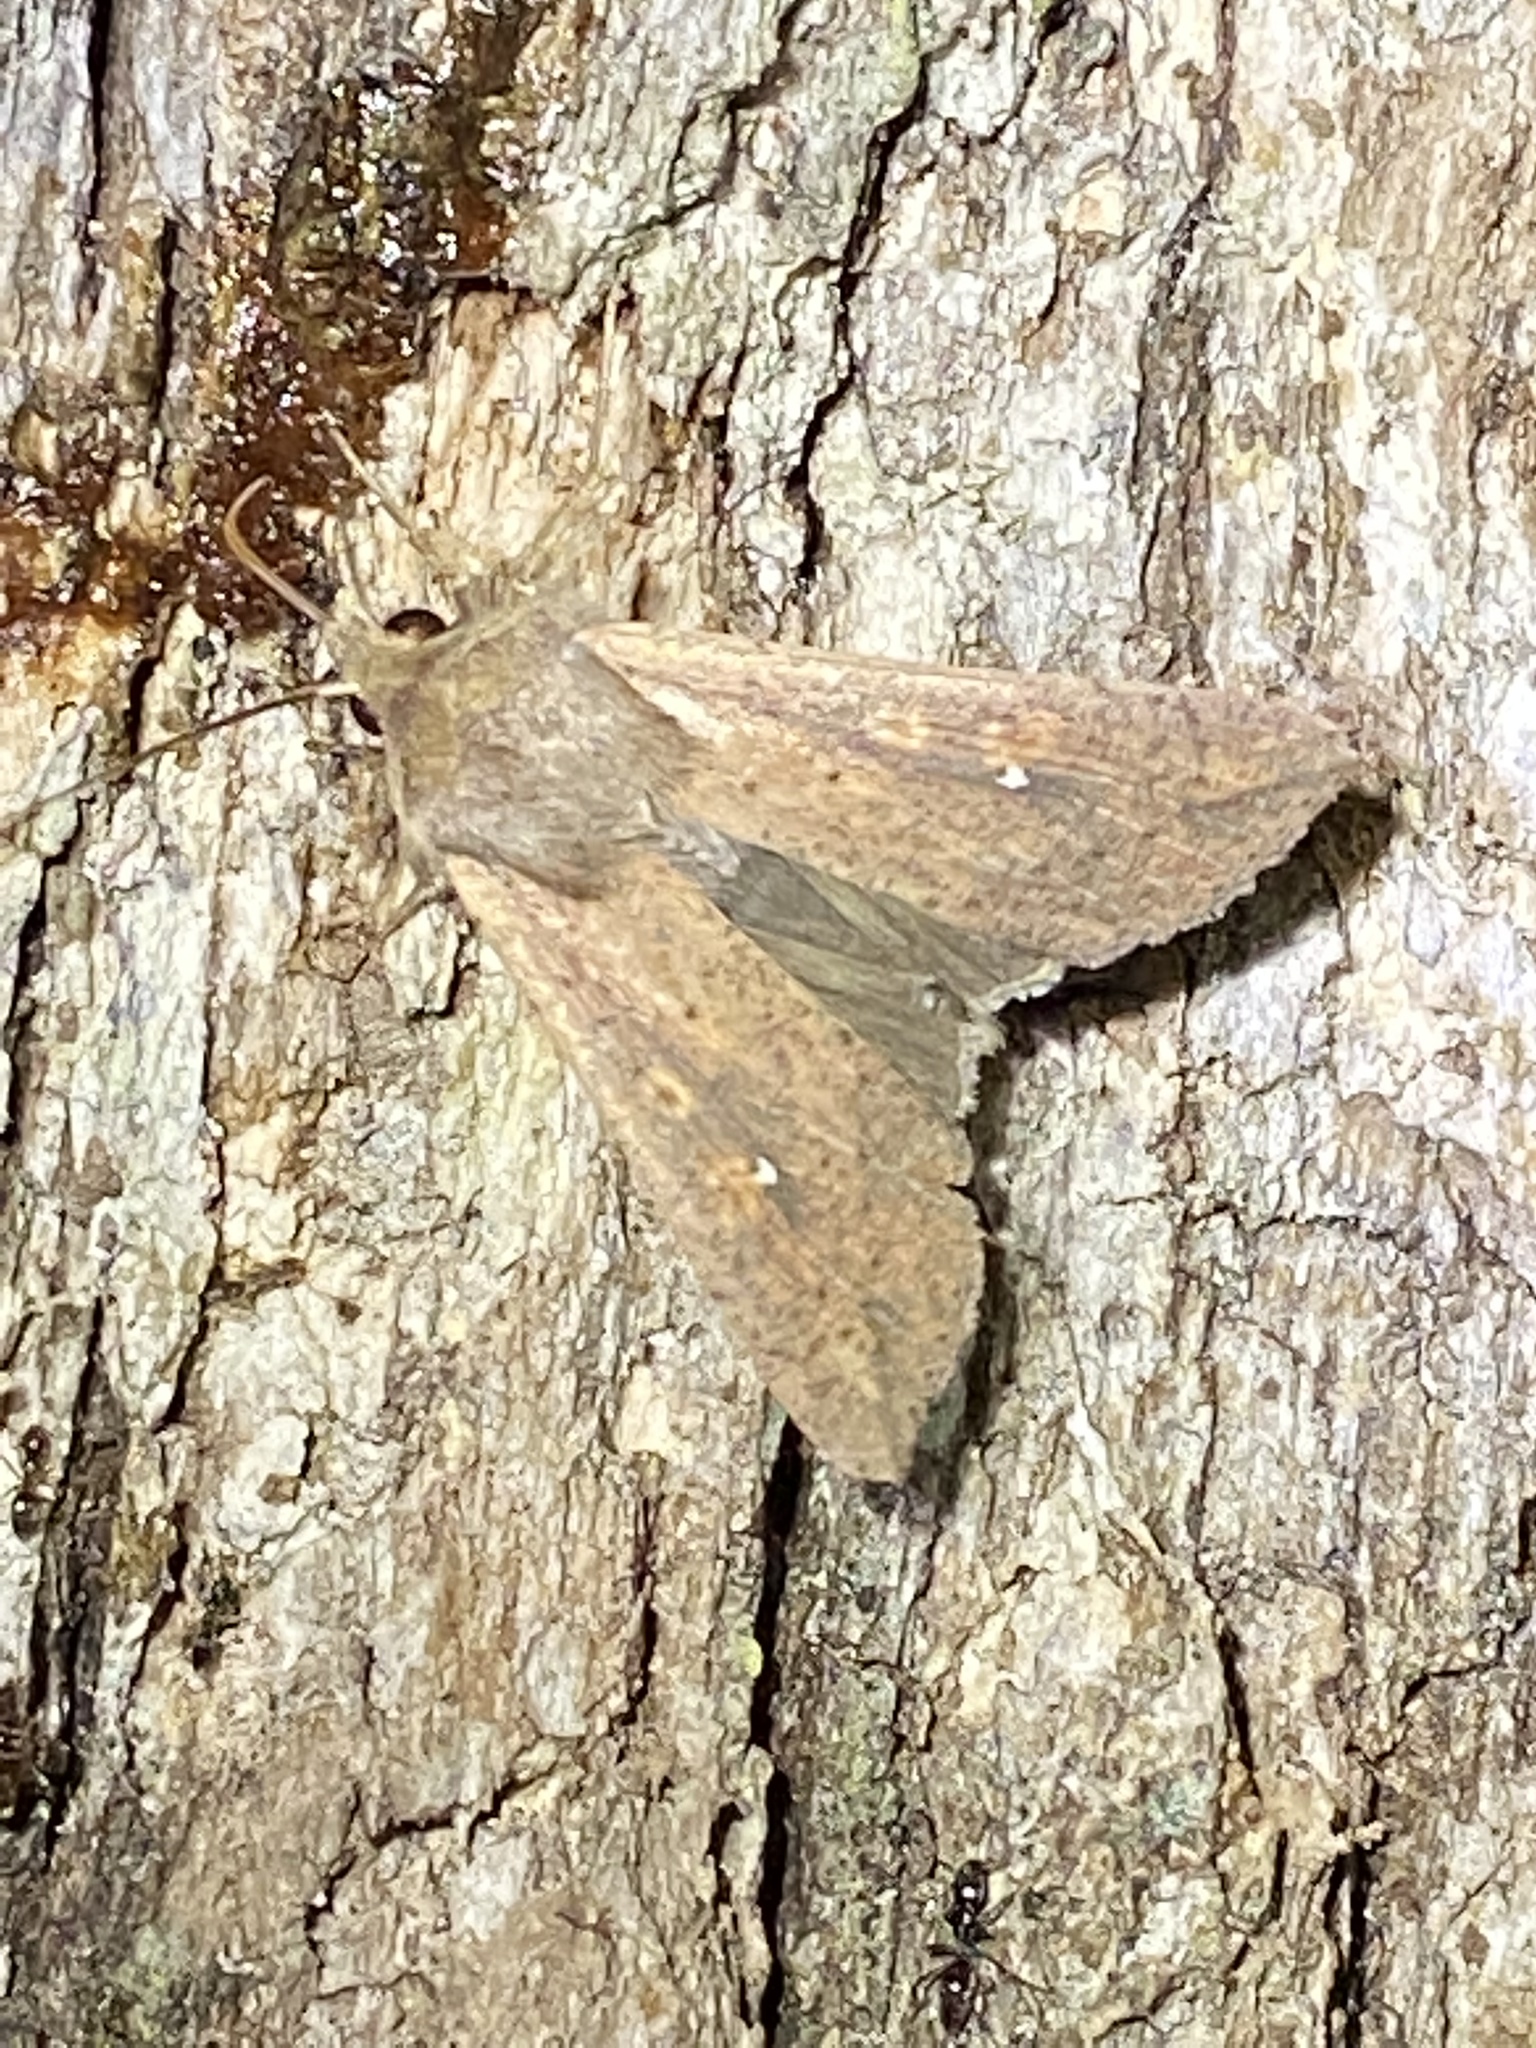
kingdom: Animalia
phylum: Arthropoda
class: Insecta
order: Lepidoptera
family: Noctuidae
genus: Mythimna
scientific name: Mythimna unipuncta
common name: White-speck
